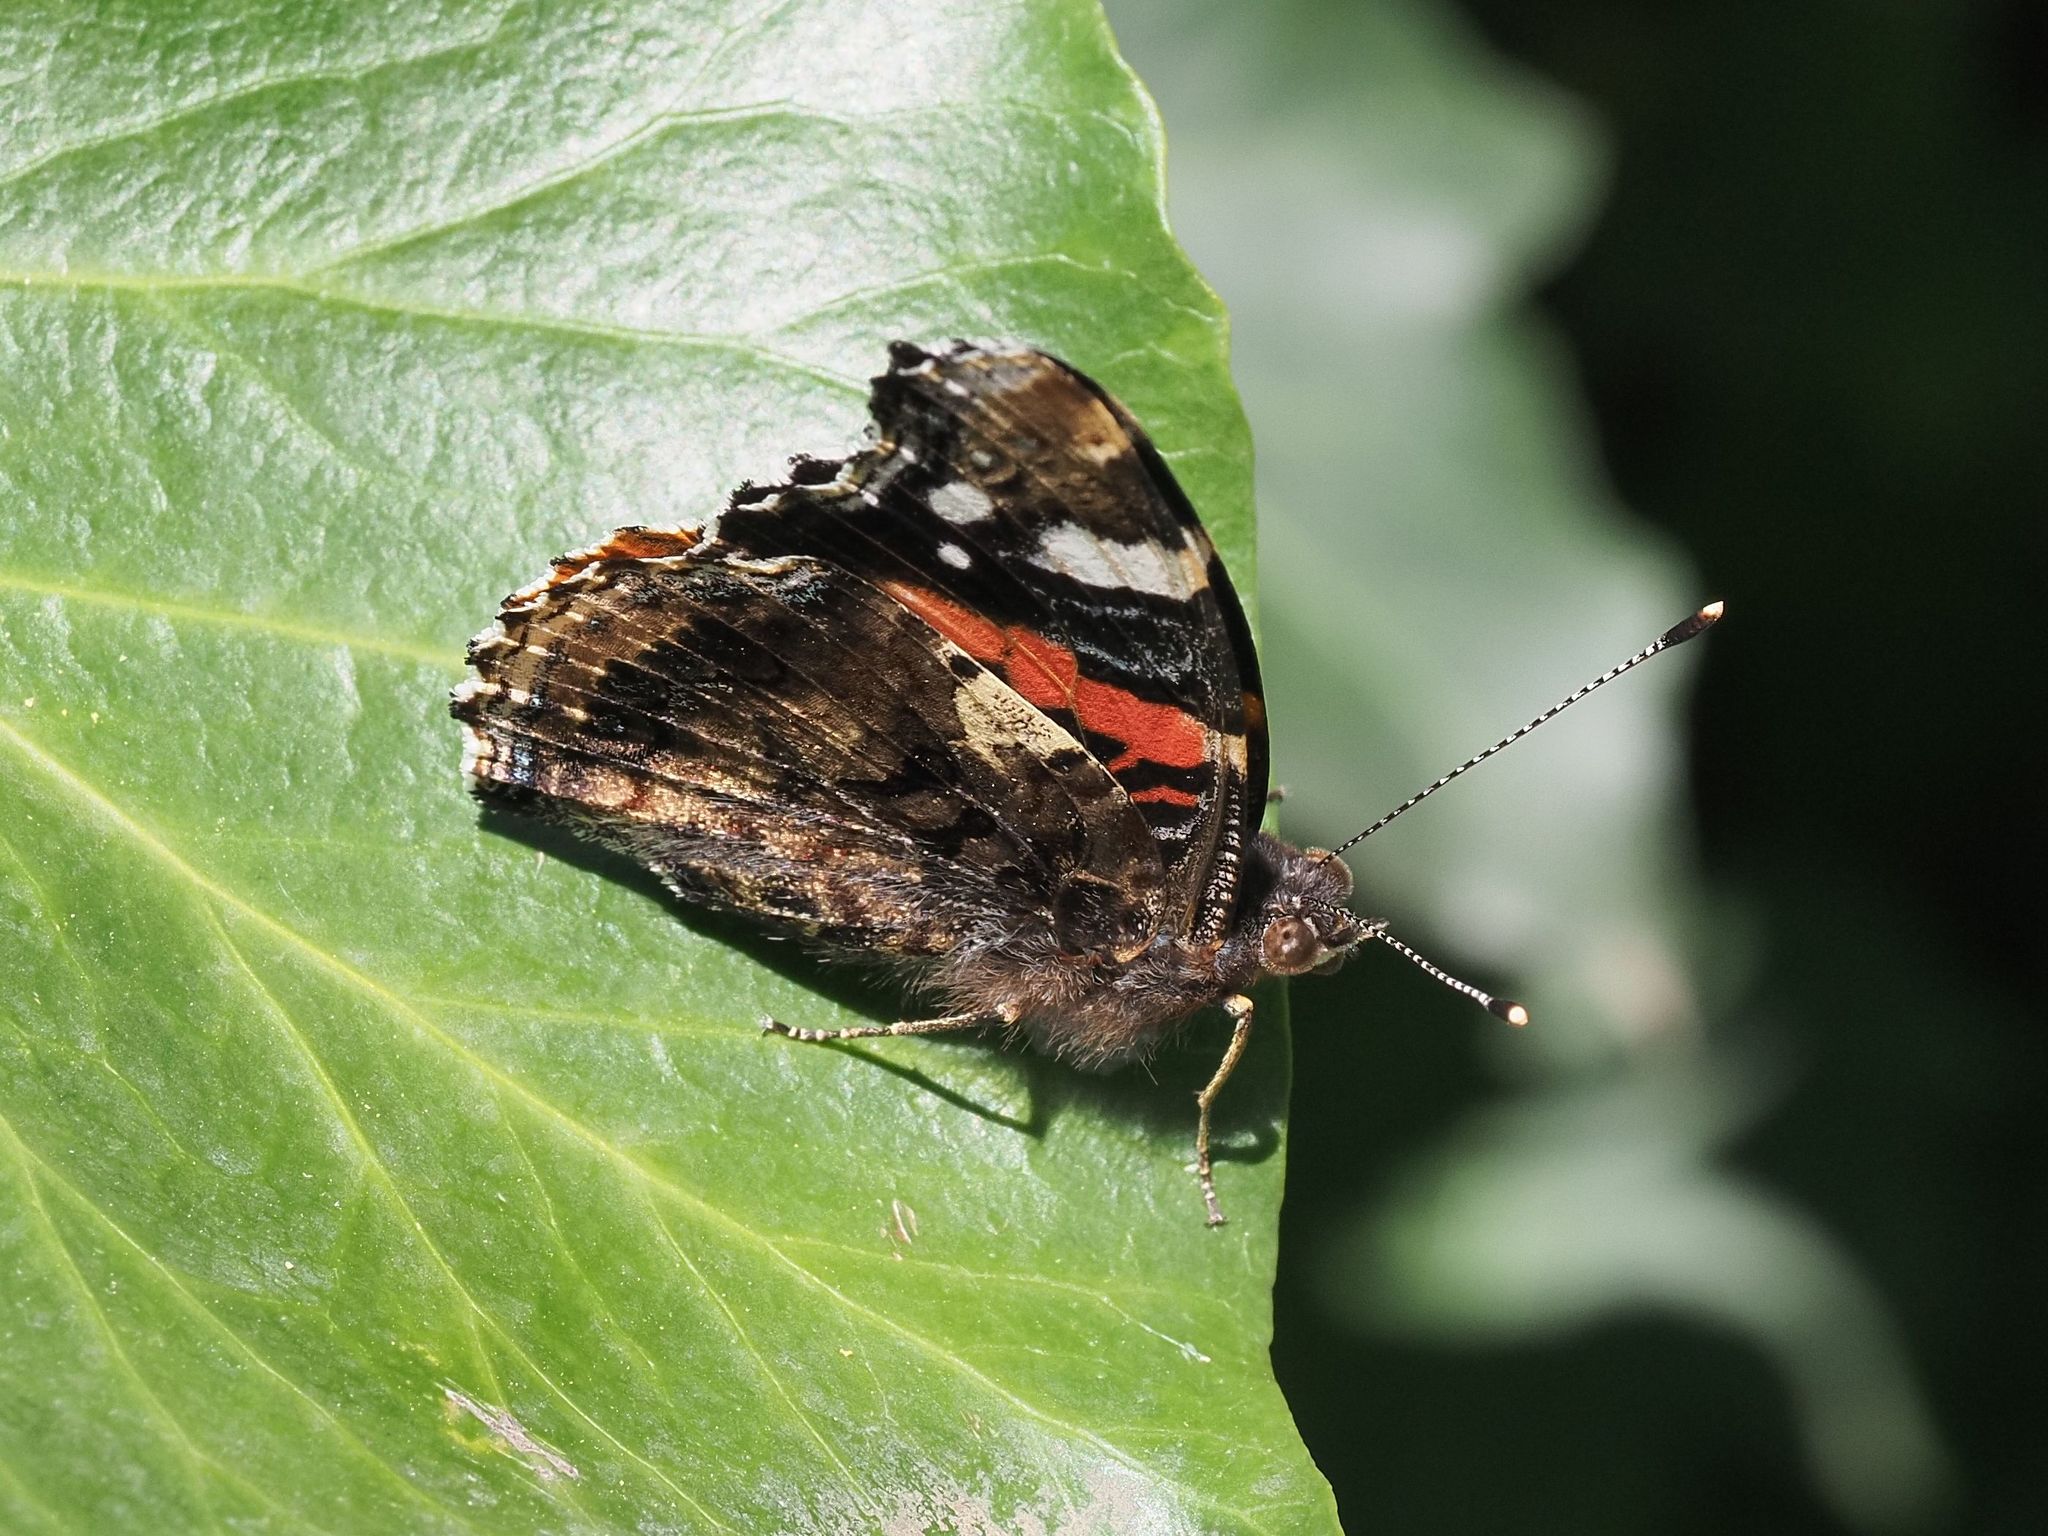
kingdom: Animalia
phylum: Arthropoda
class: Insecta
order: Lepidoptera
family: Nymphalidae
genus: Vanessa
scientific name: Vanessa atalanta
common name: Red admiral
